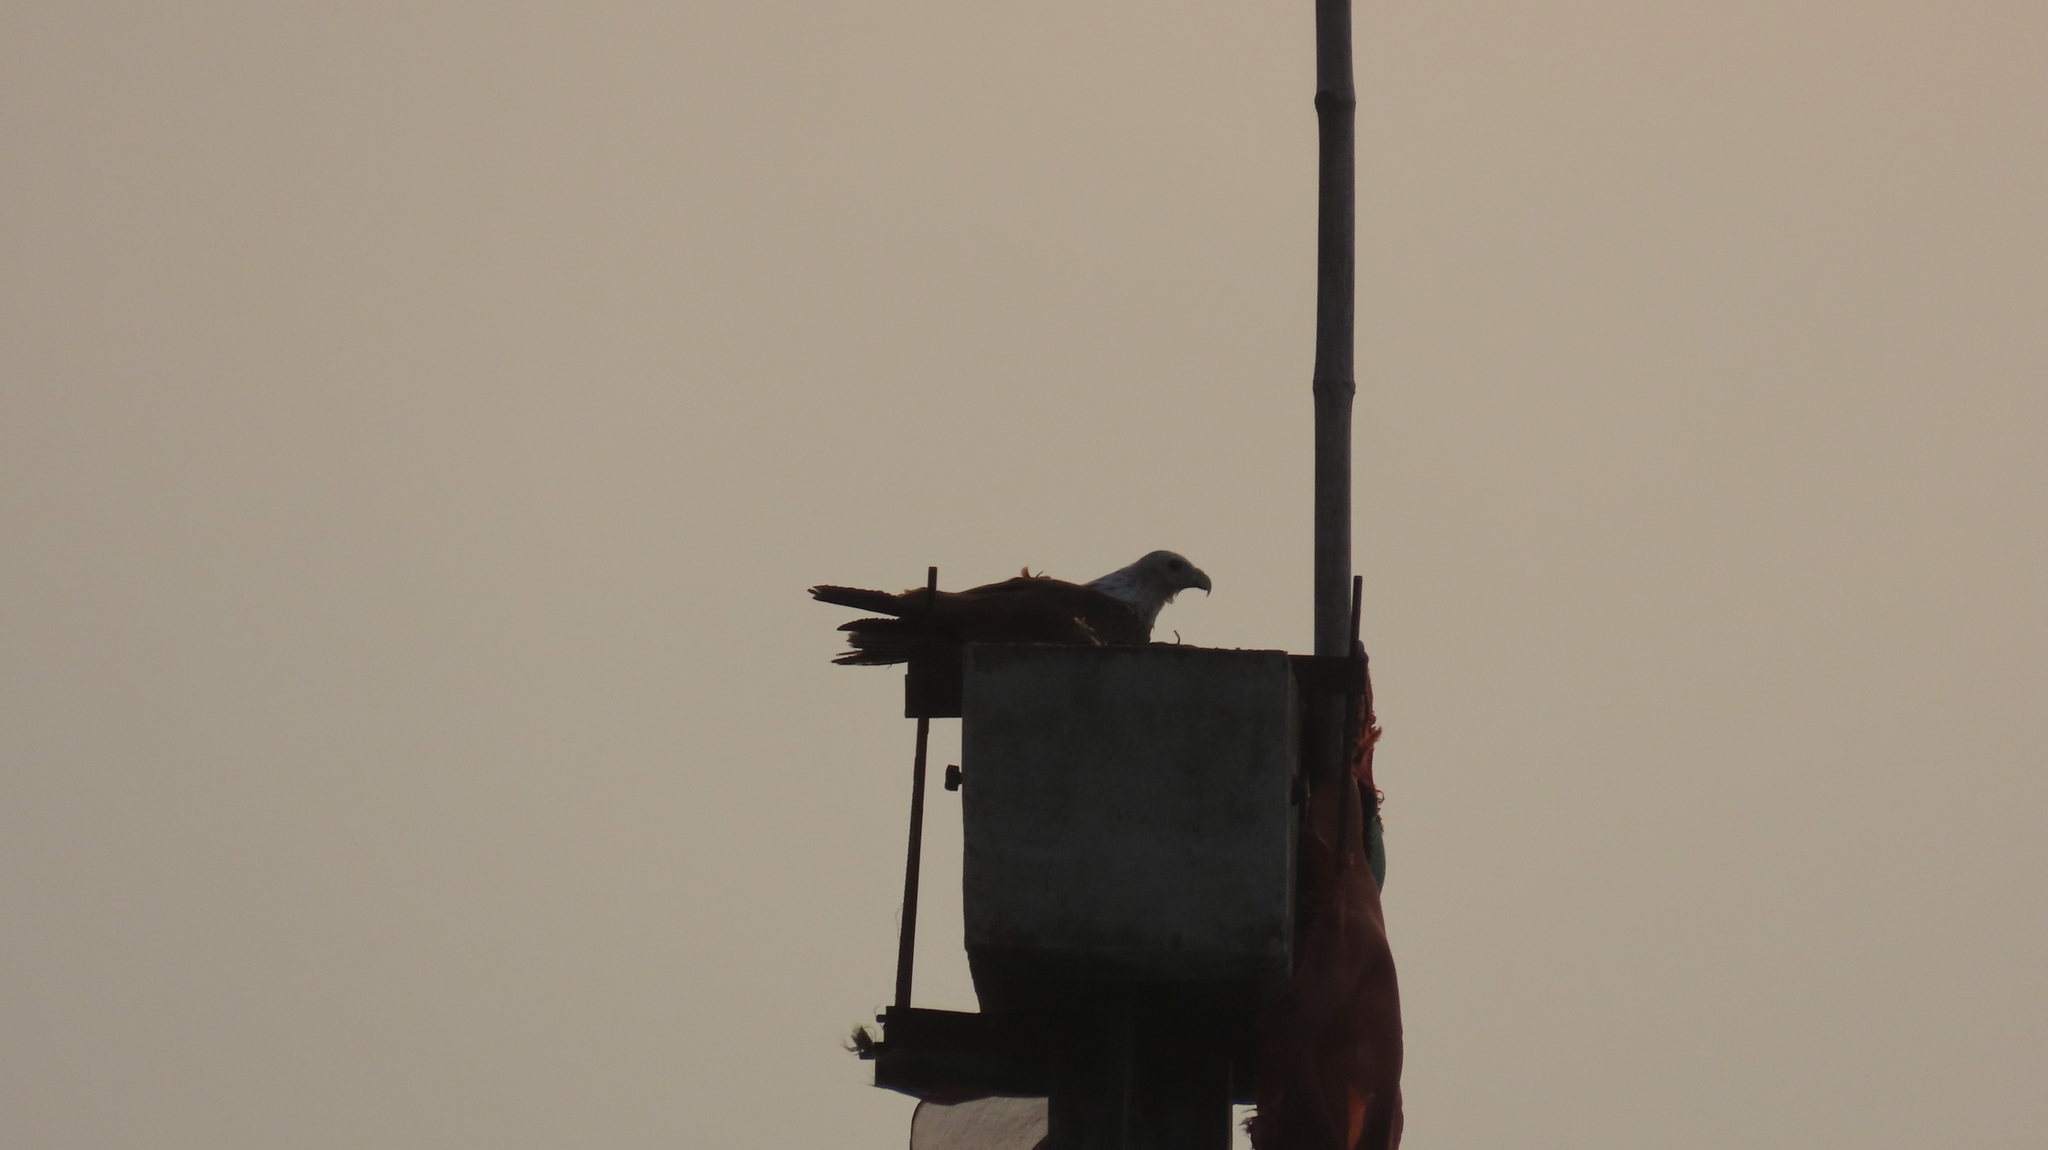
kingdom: Animalia
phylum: Chordata
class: Aves
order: Accipitriformes
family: Accipitridae
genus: Haliastur
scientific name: Haliastur indus
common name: Brahminy kite
